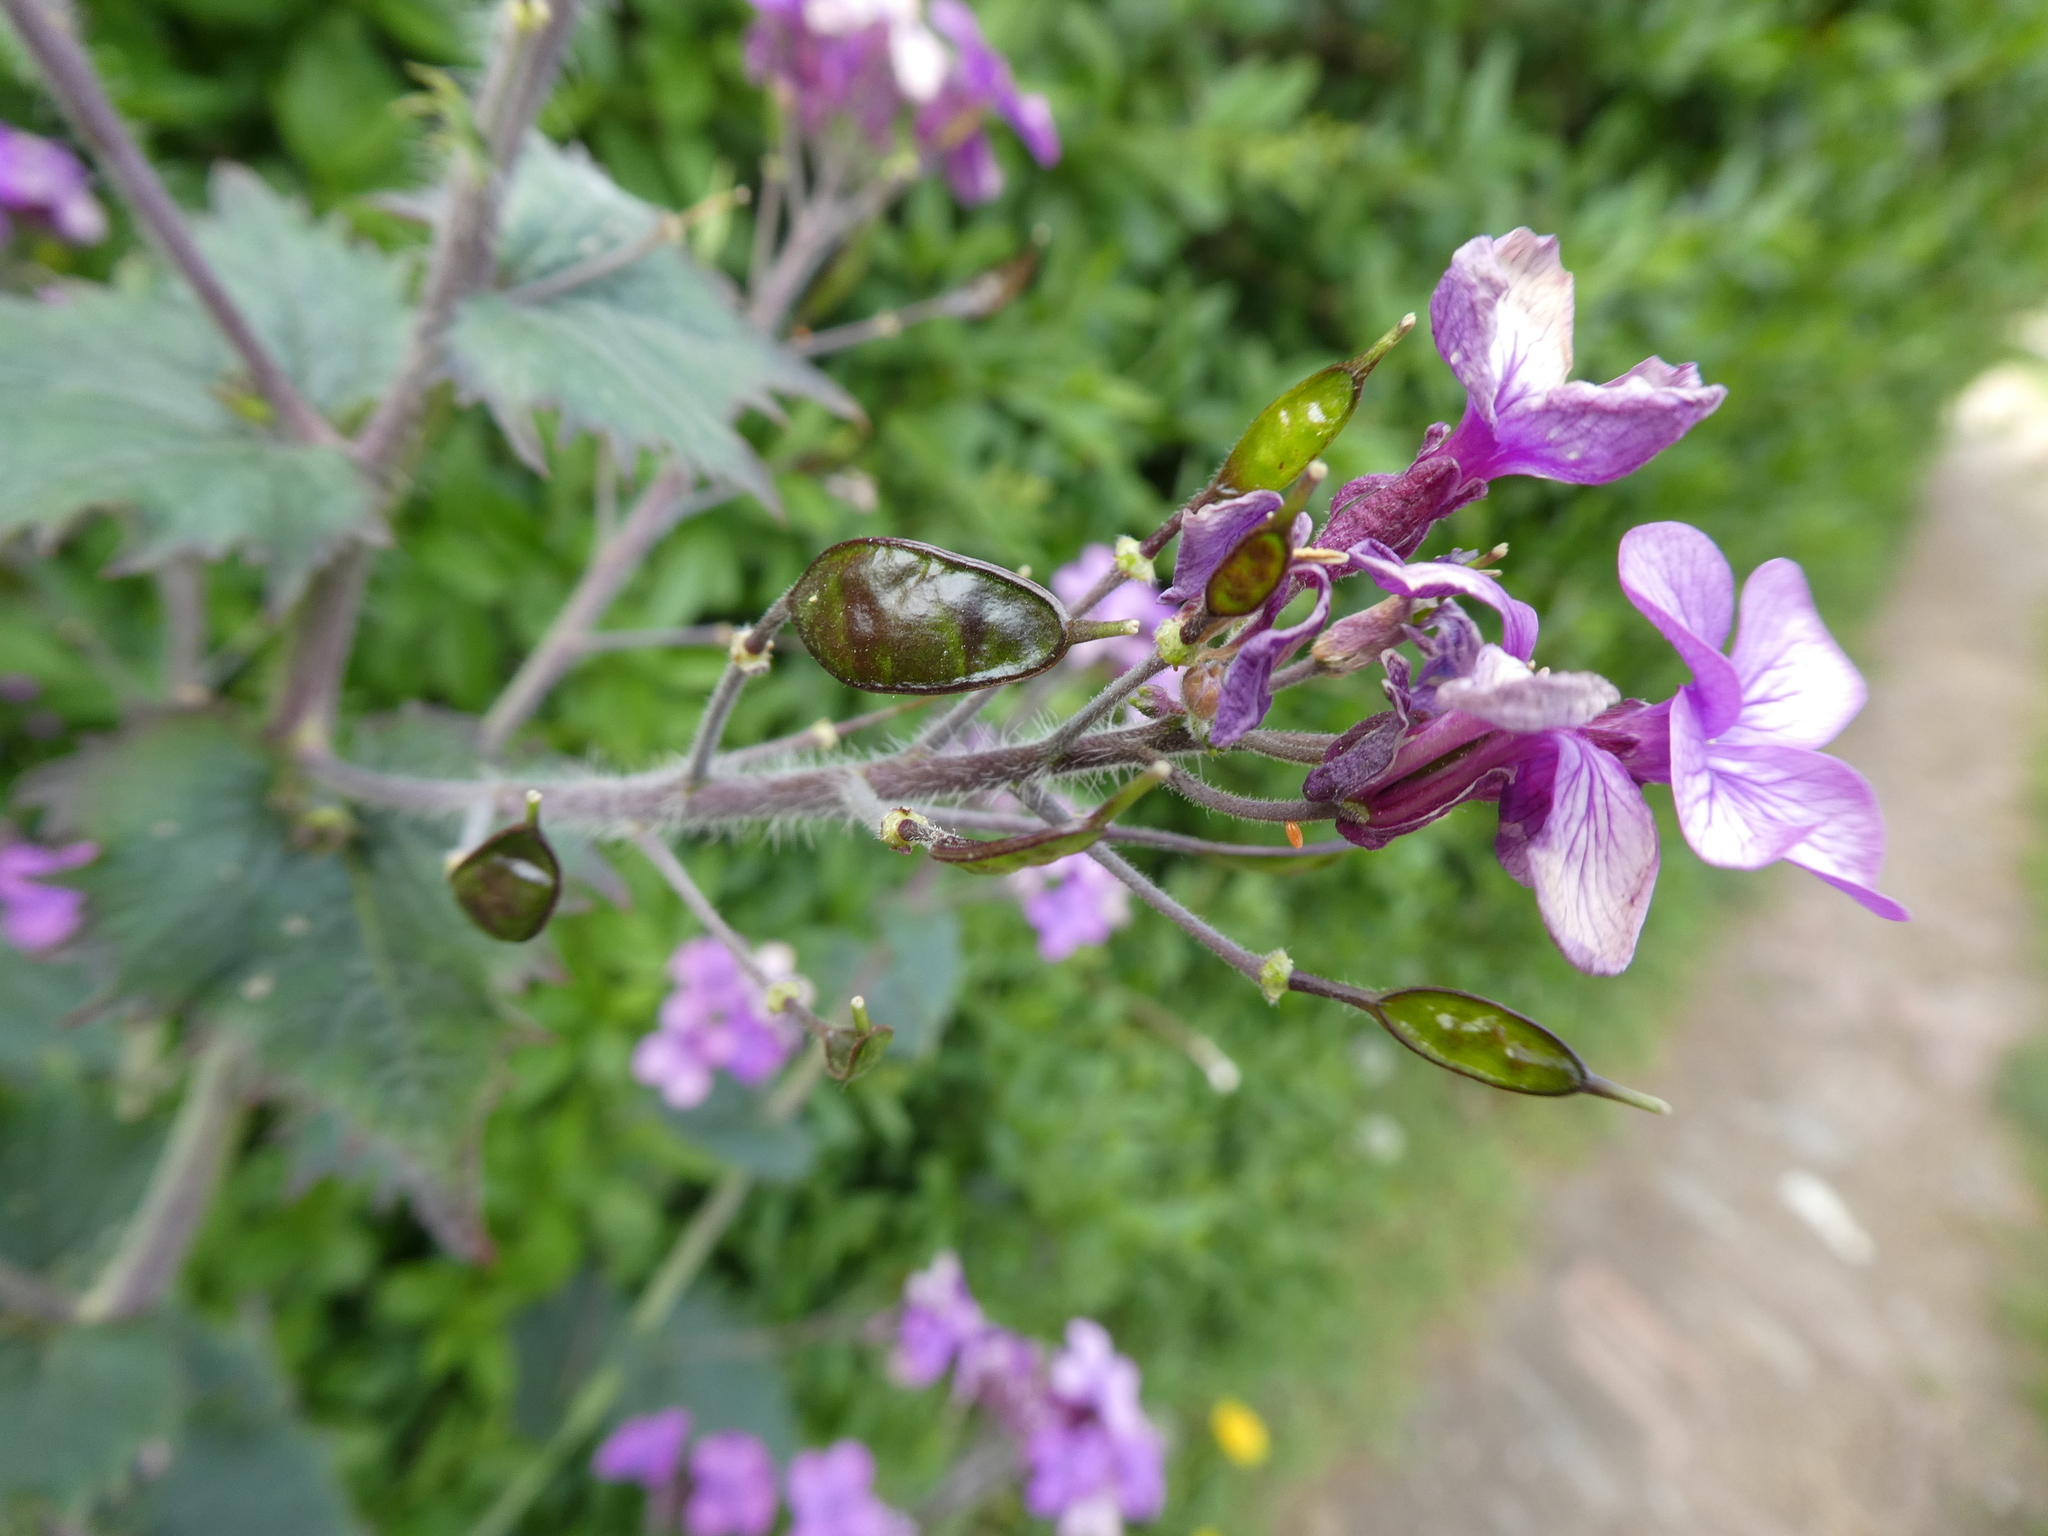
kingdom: Plantae
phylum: Tracheophyta
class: Magnoliopsida
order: Brassicales
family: Brassicaceae
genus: Lunaria
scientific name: Lunaria annua
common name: Honesty
